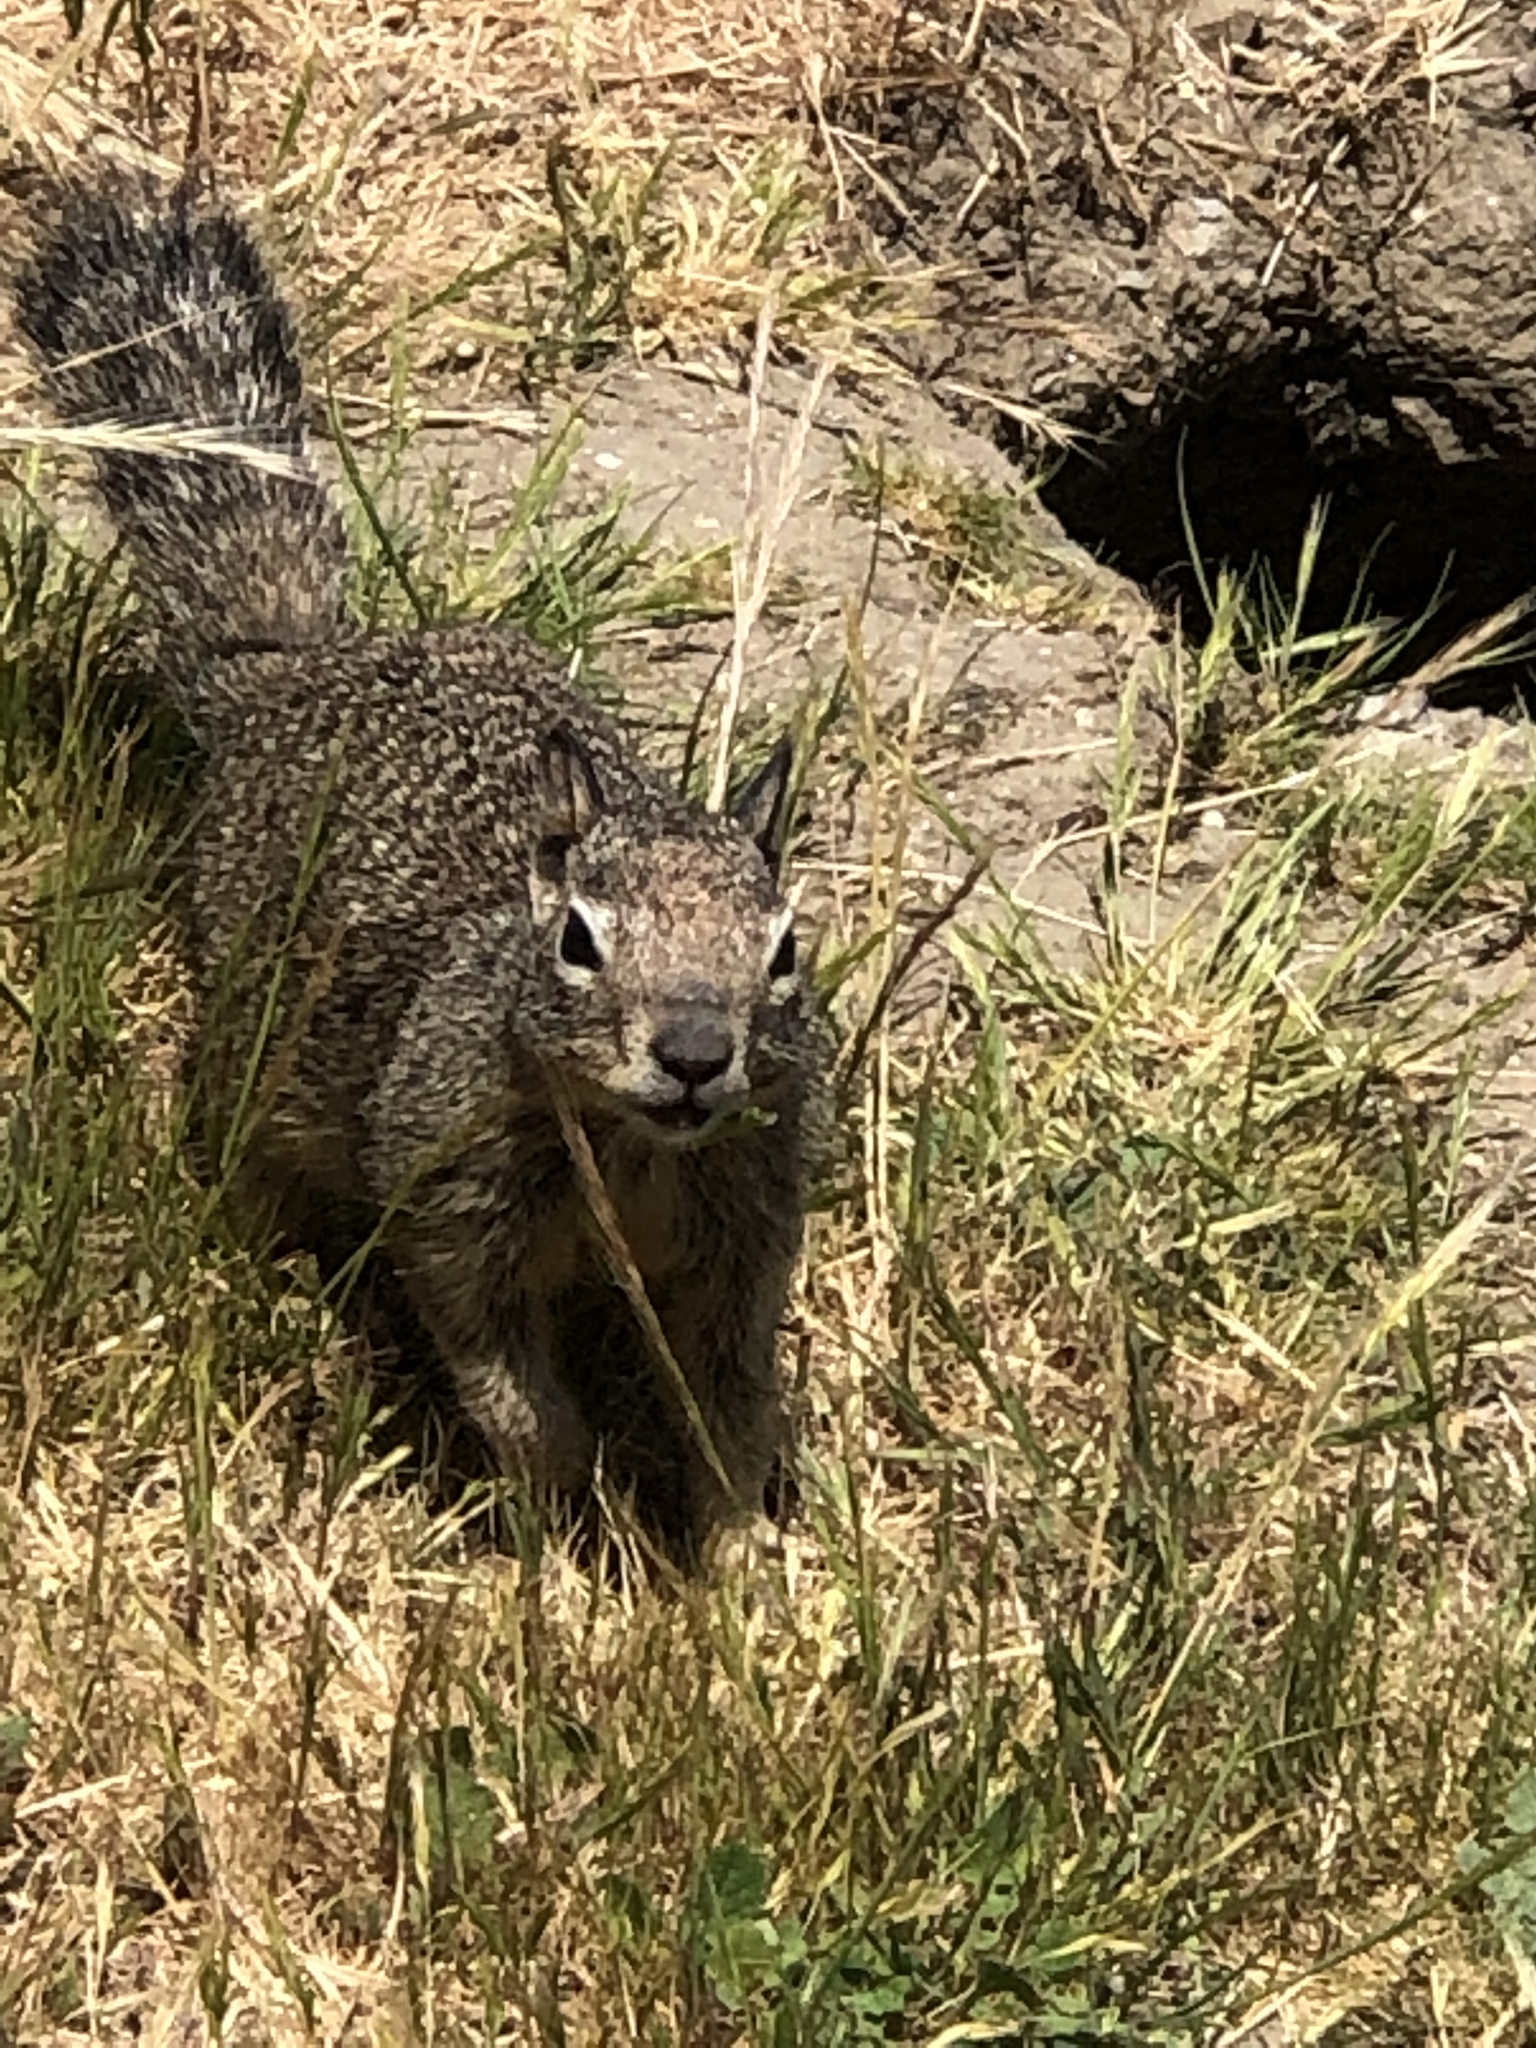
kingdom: Animalia
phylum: Chordata
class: Mammalia
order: Rodentia
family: Sciuridae
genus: Otospermophilus
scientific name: Otospermophilus beecheyi
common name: California ground squirrel
